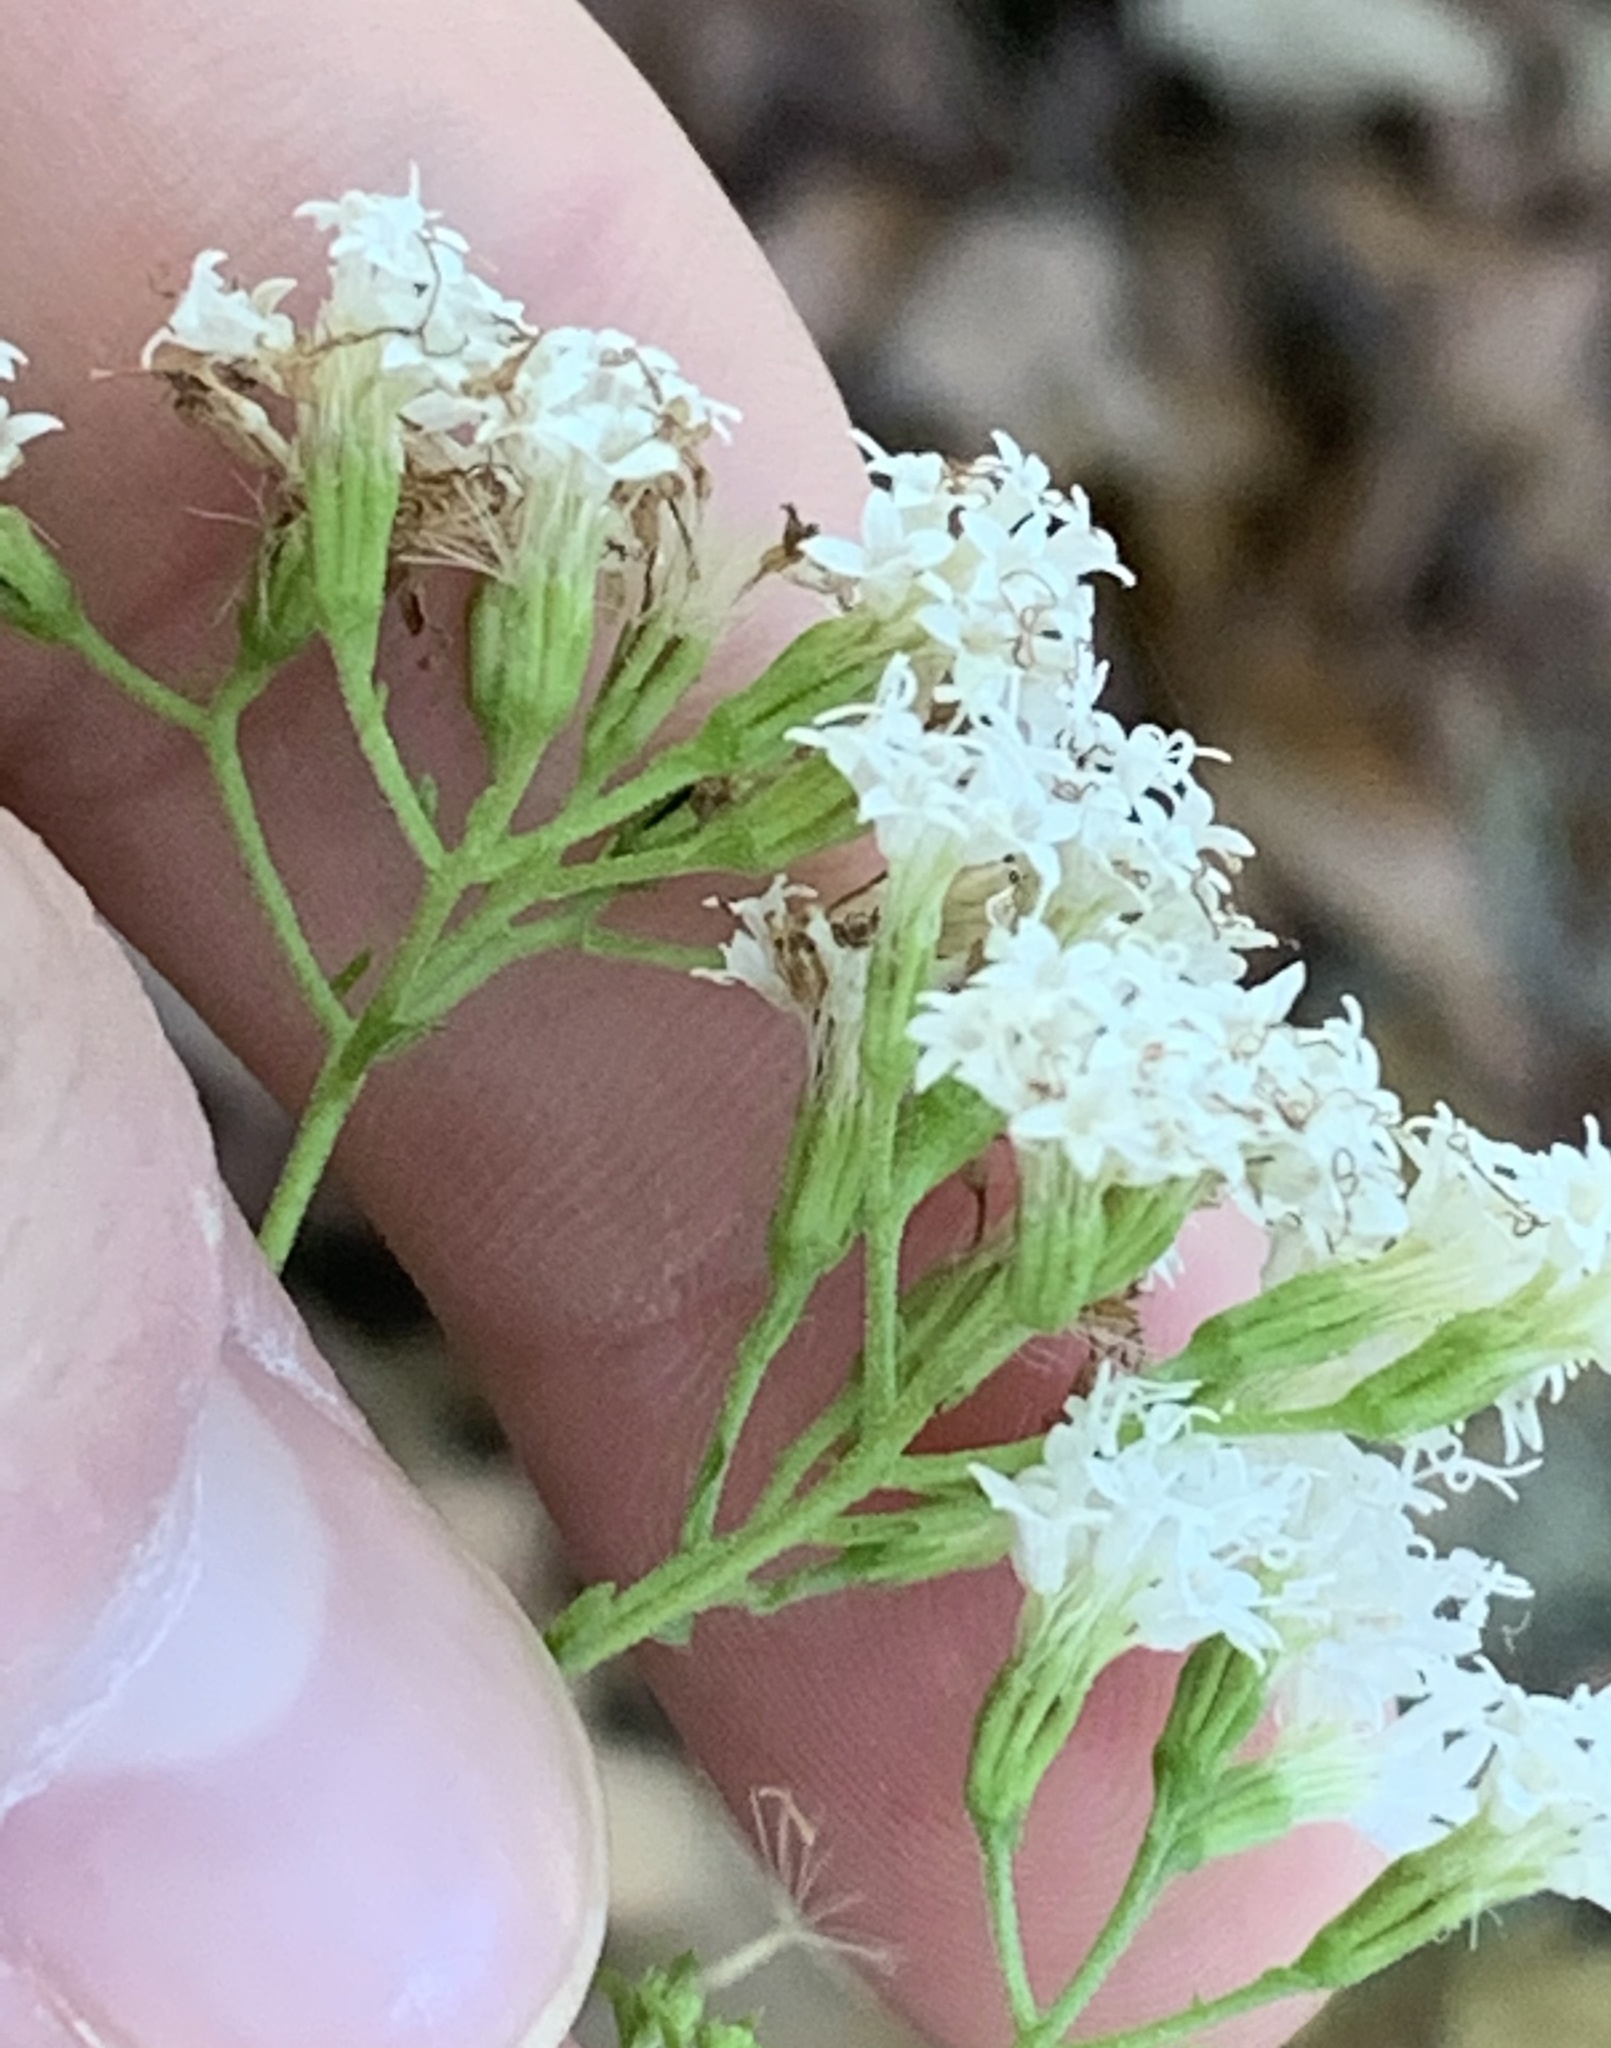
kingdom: Plantae
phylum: Tracheophyta
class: Magnoliopsida
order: Asterales
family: Asteraceae
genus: Ageratina
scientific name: Ageratina jucunda
